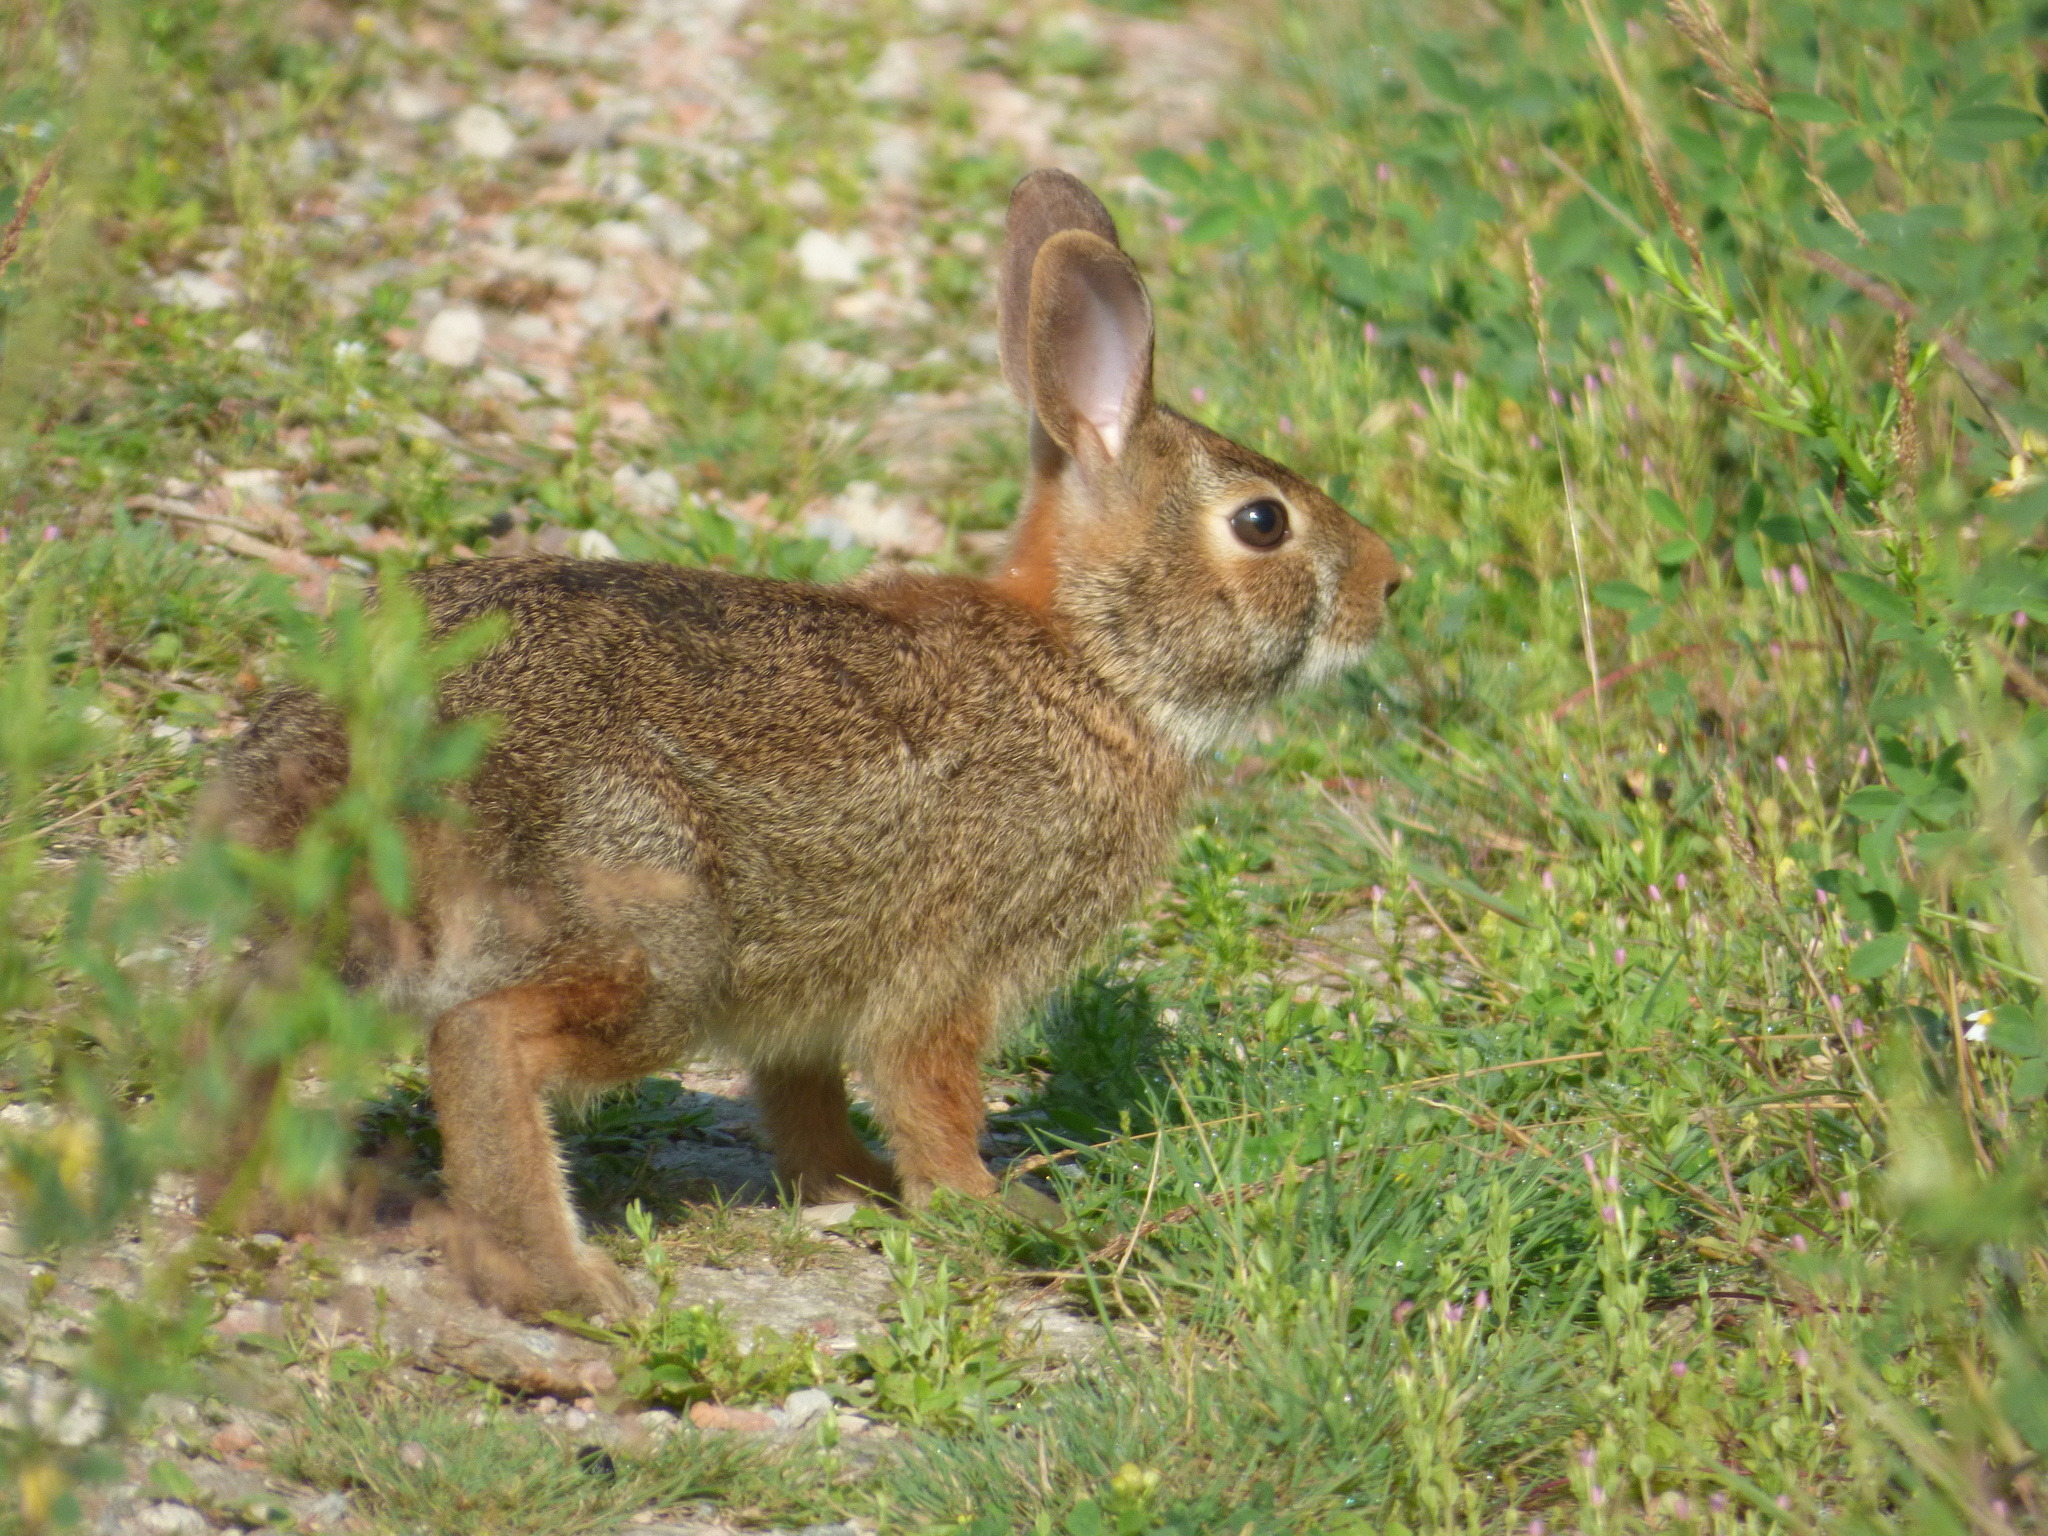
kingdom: Animalia
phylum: Chordata
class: Mammalia
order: Lagomorpha
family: Leporidae
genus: Sylvilagus
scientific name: Sylvilagus floridanus
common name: Eastern cottontail
